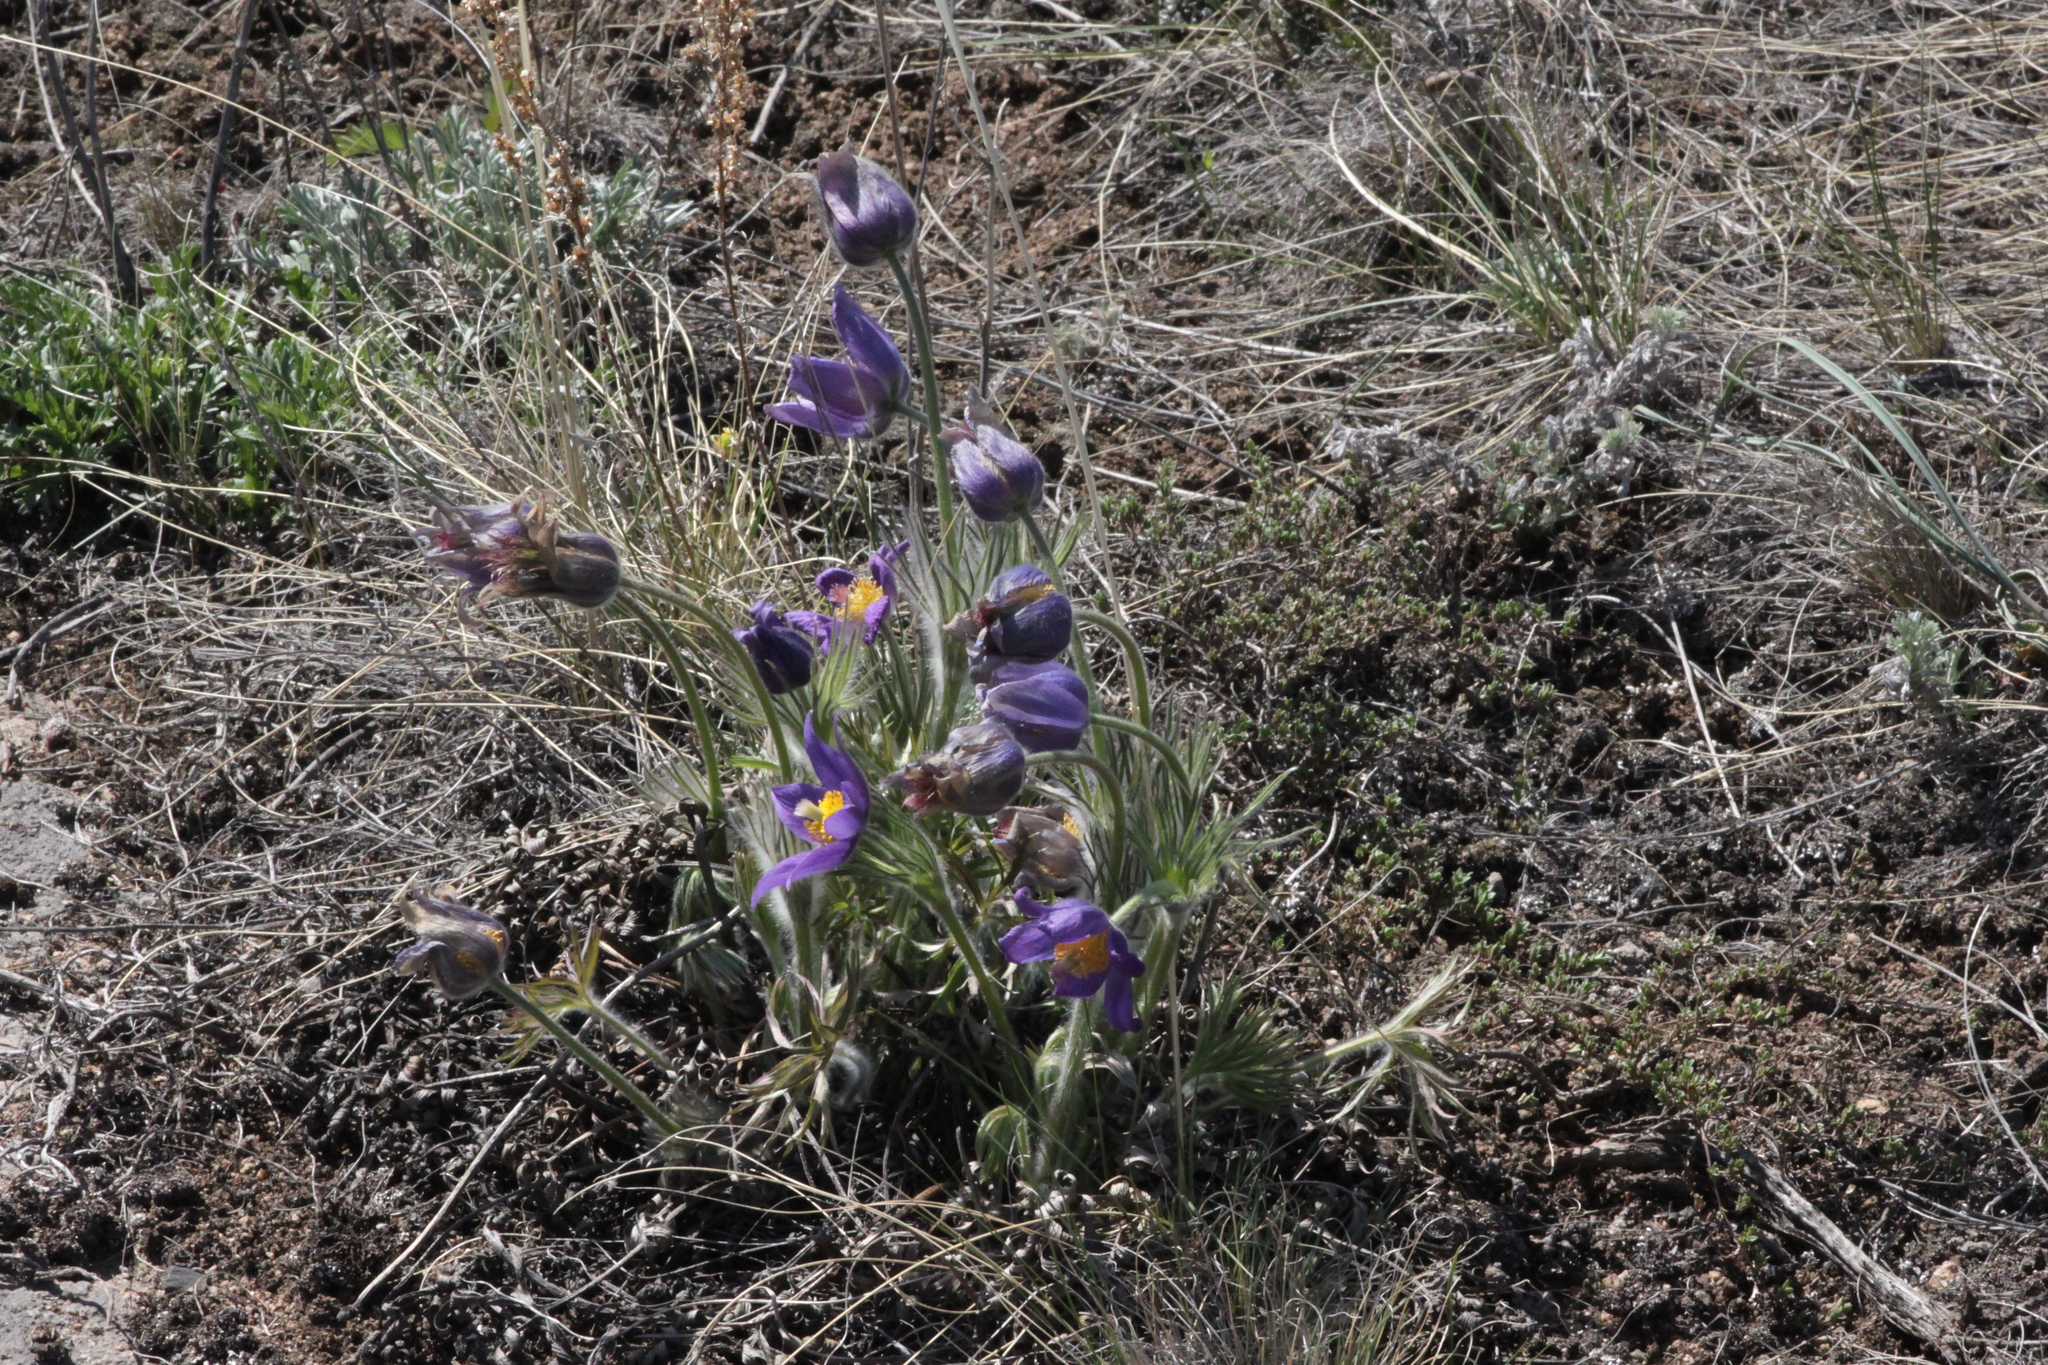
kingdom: Plantae
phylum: Tracheophyta
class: Magnoliopsida
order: Ranunculales
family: Ranunculaceae
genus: Pulsatilla
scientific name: Pulsatilla patens
